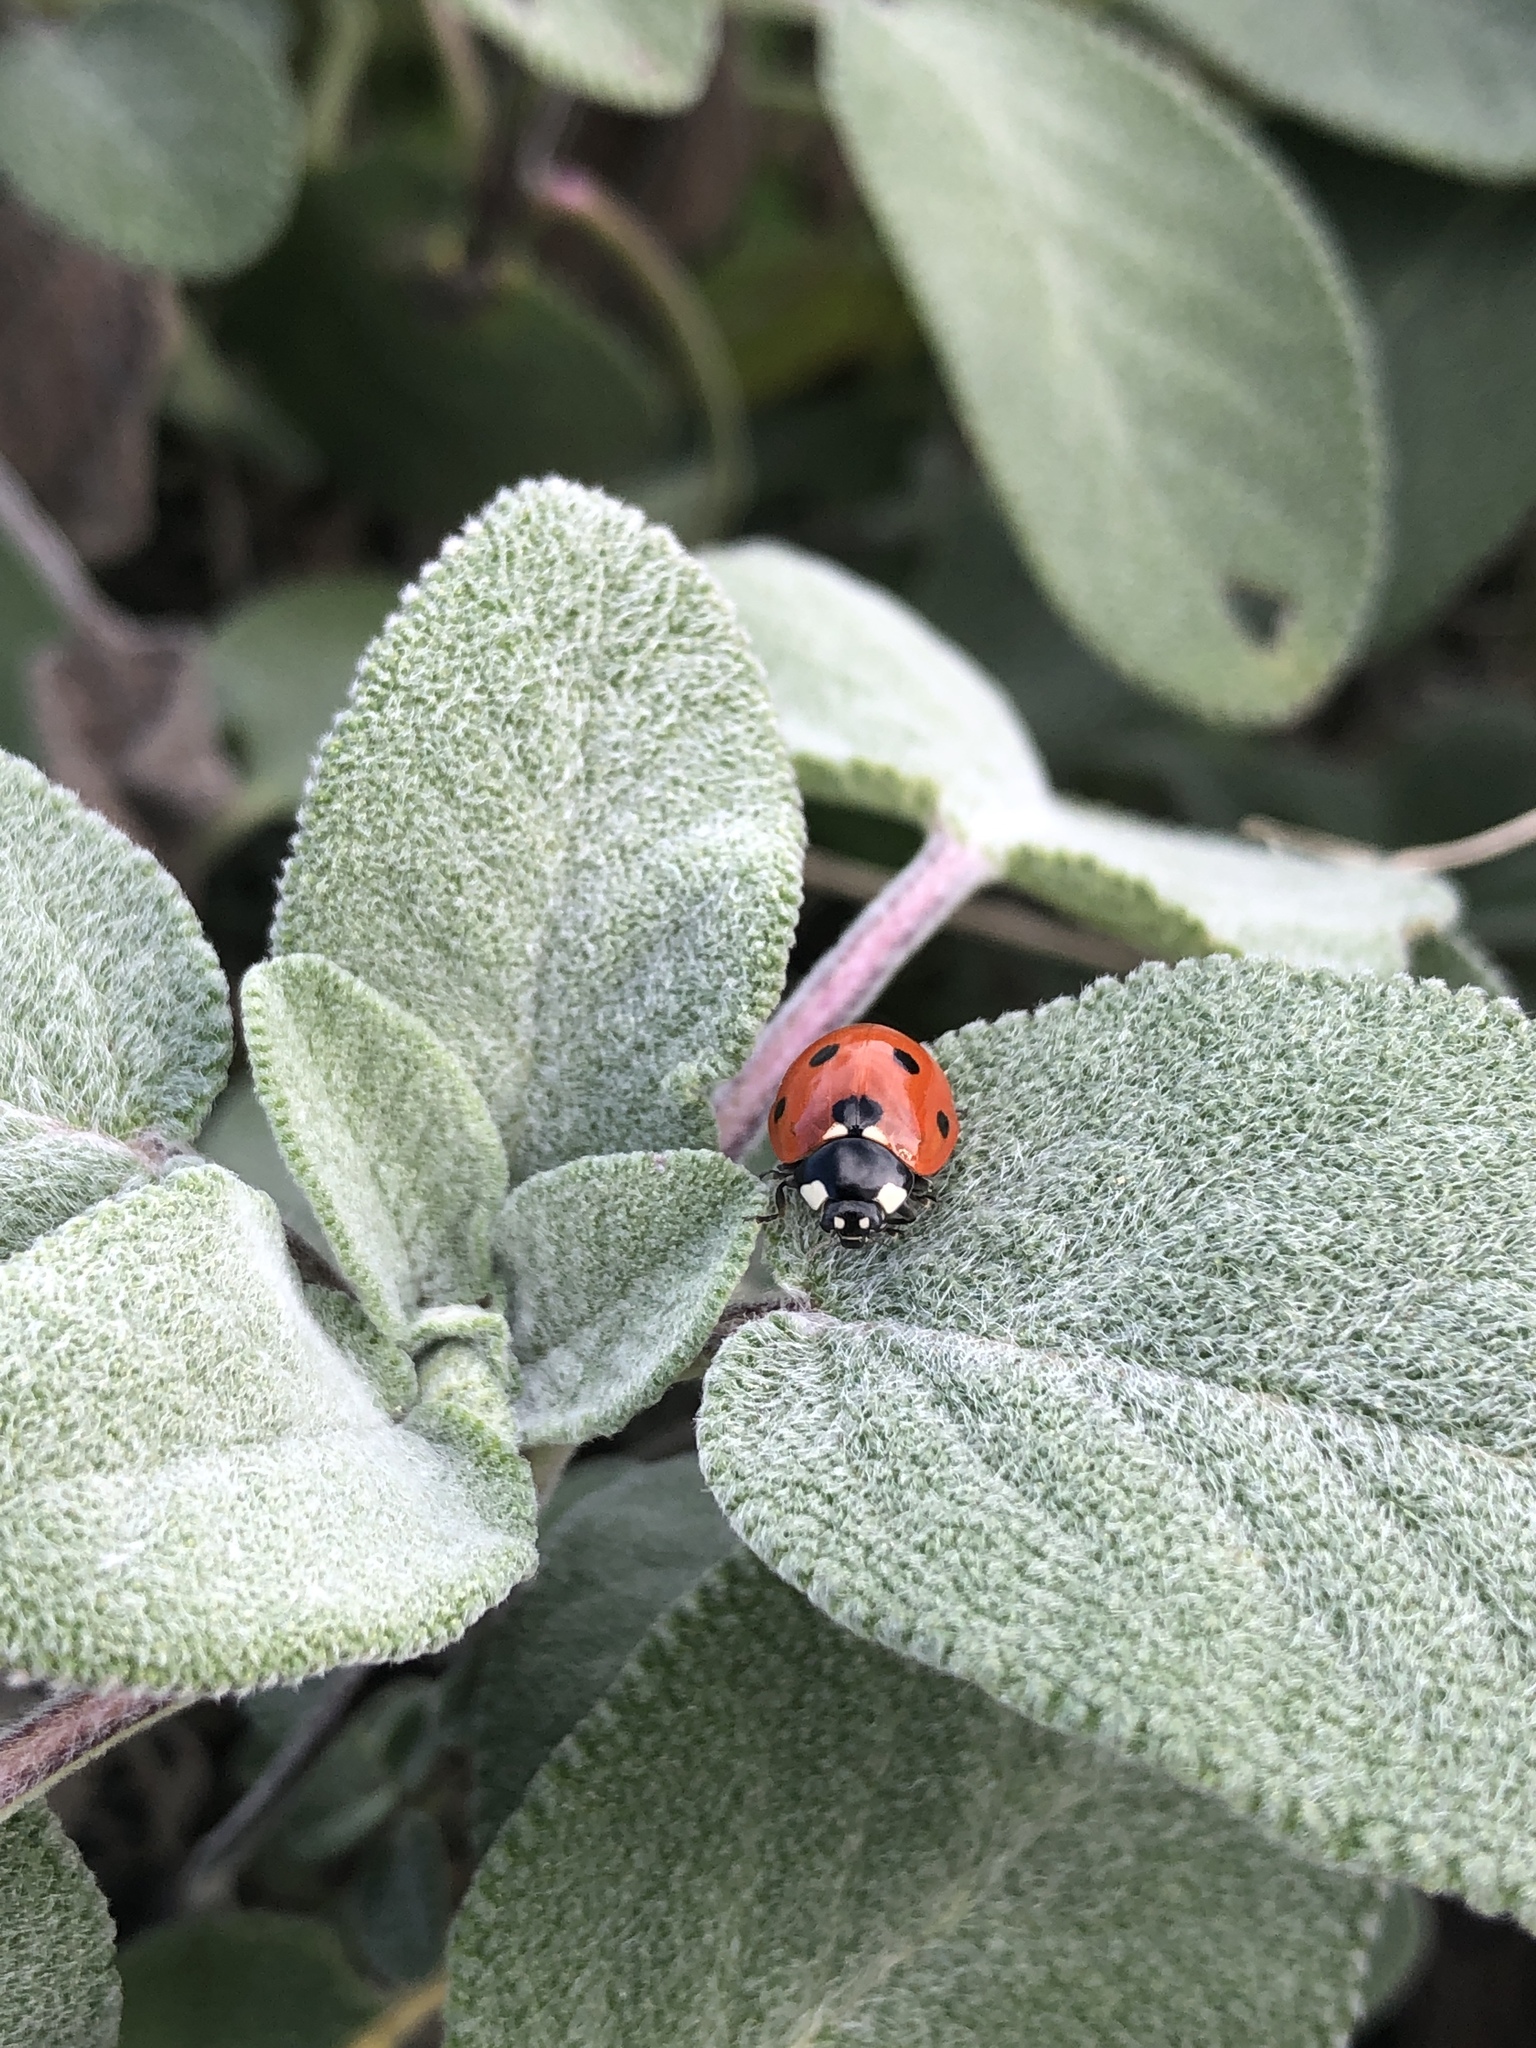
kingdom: Animalia
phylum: Arthropoda
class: Insecta
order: Coleoptera
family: Coccinellidae
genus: Coccinella
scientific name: Coccinella septempunctata
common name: Sevenspotted lady beetle
